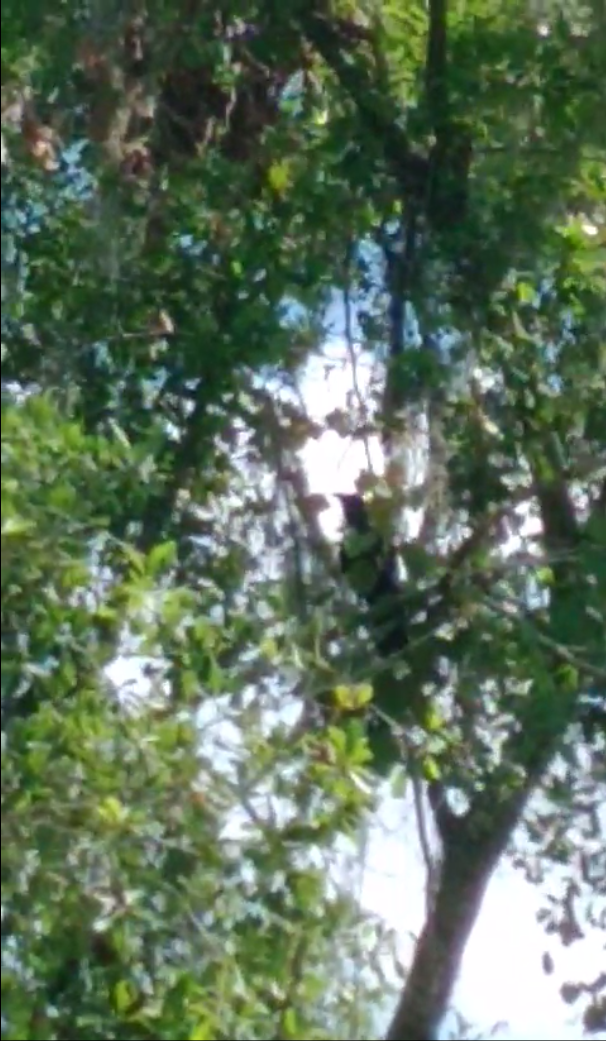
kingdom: Animalia
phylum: Chordata
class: Aves
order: Passeriformes
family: Corvidae
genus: Corvus
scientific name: Corvus ossifragus
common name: Fish crow
